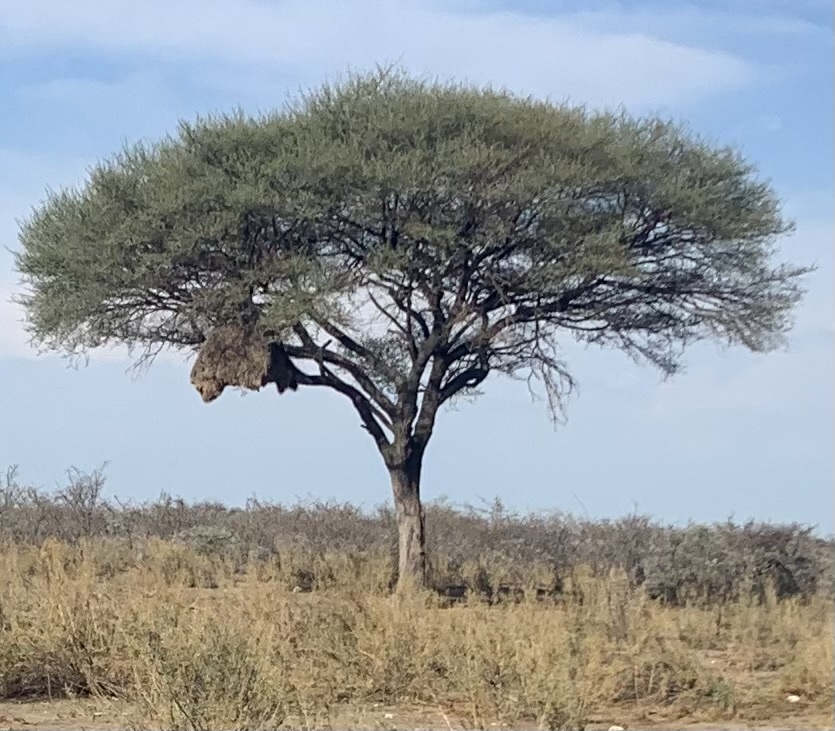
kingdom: Plantae
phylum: Tracheophyta
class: Magnoliopsida
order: Fabales
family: Fabaceae
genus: Vachellia
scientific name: Vachellia tortilis
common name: Umbrella thorn acacia
